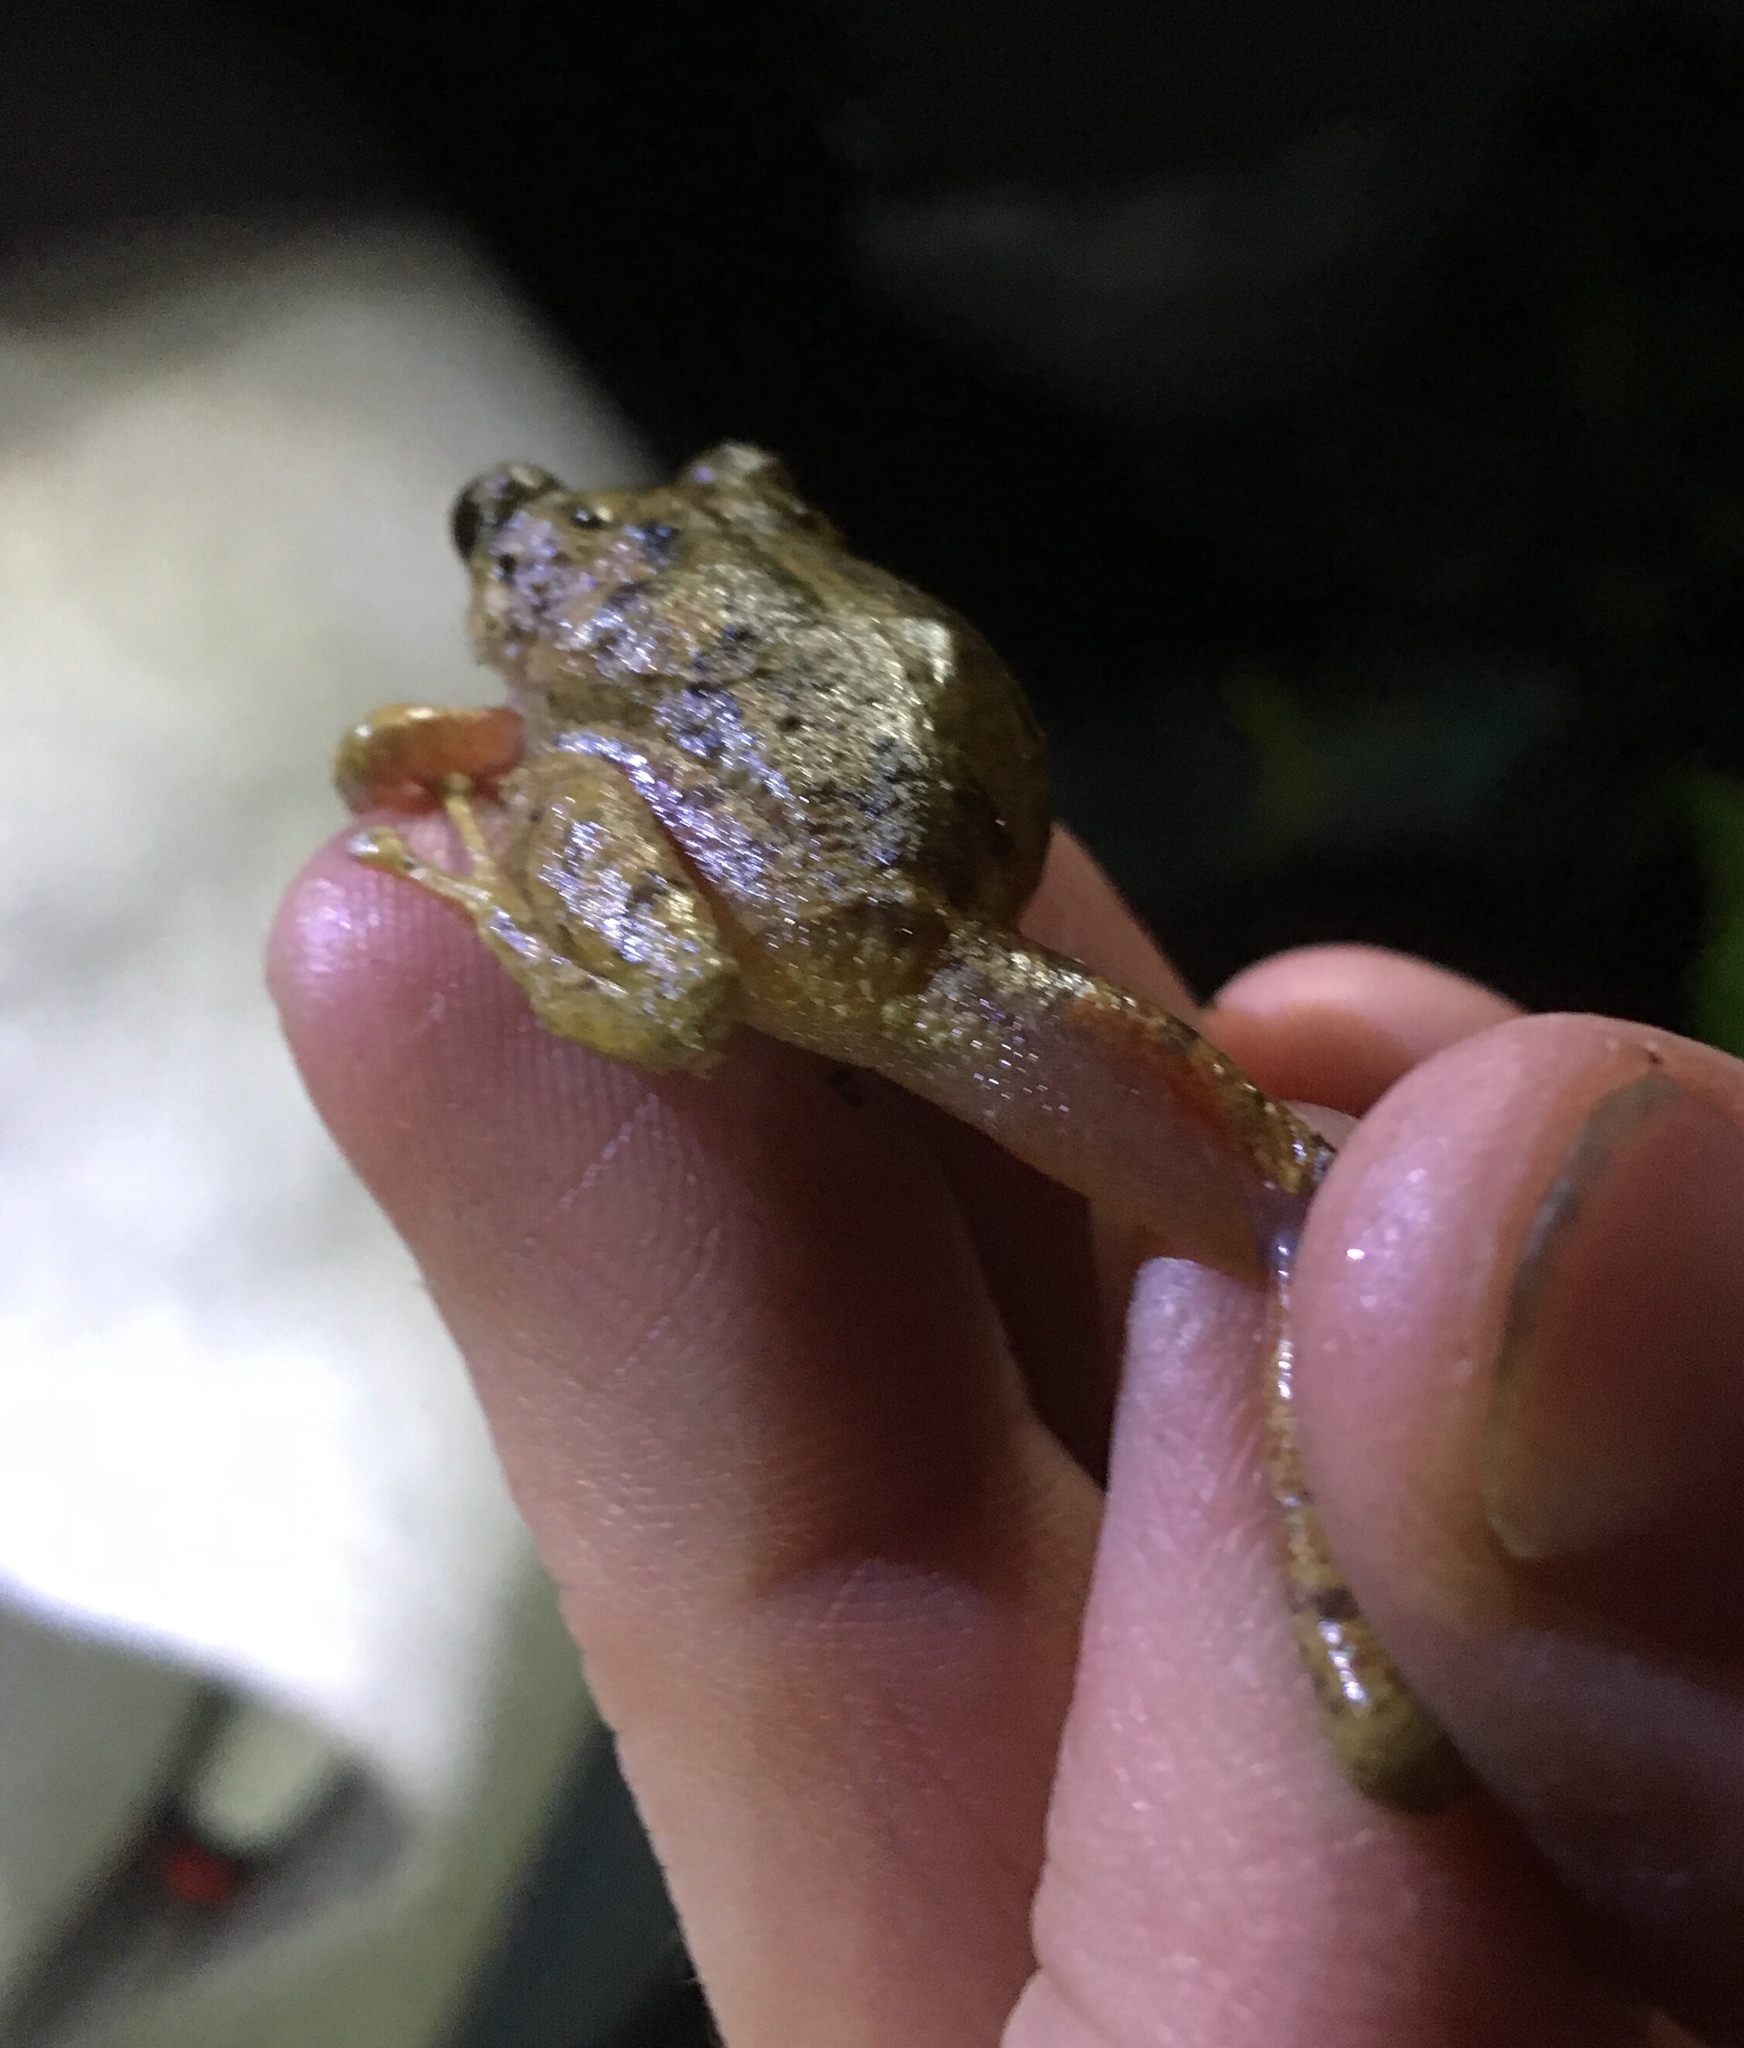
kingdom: Animalia
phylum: Chordata
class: Amphibia
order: Anura
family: Craugastoridae
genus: Pristimantis
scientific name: Pristimantis bogotensis
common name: Bogota robber frog
